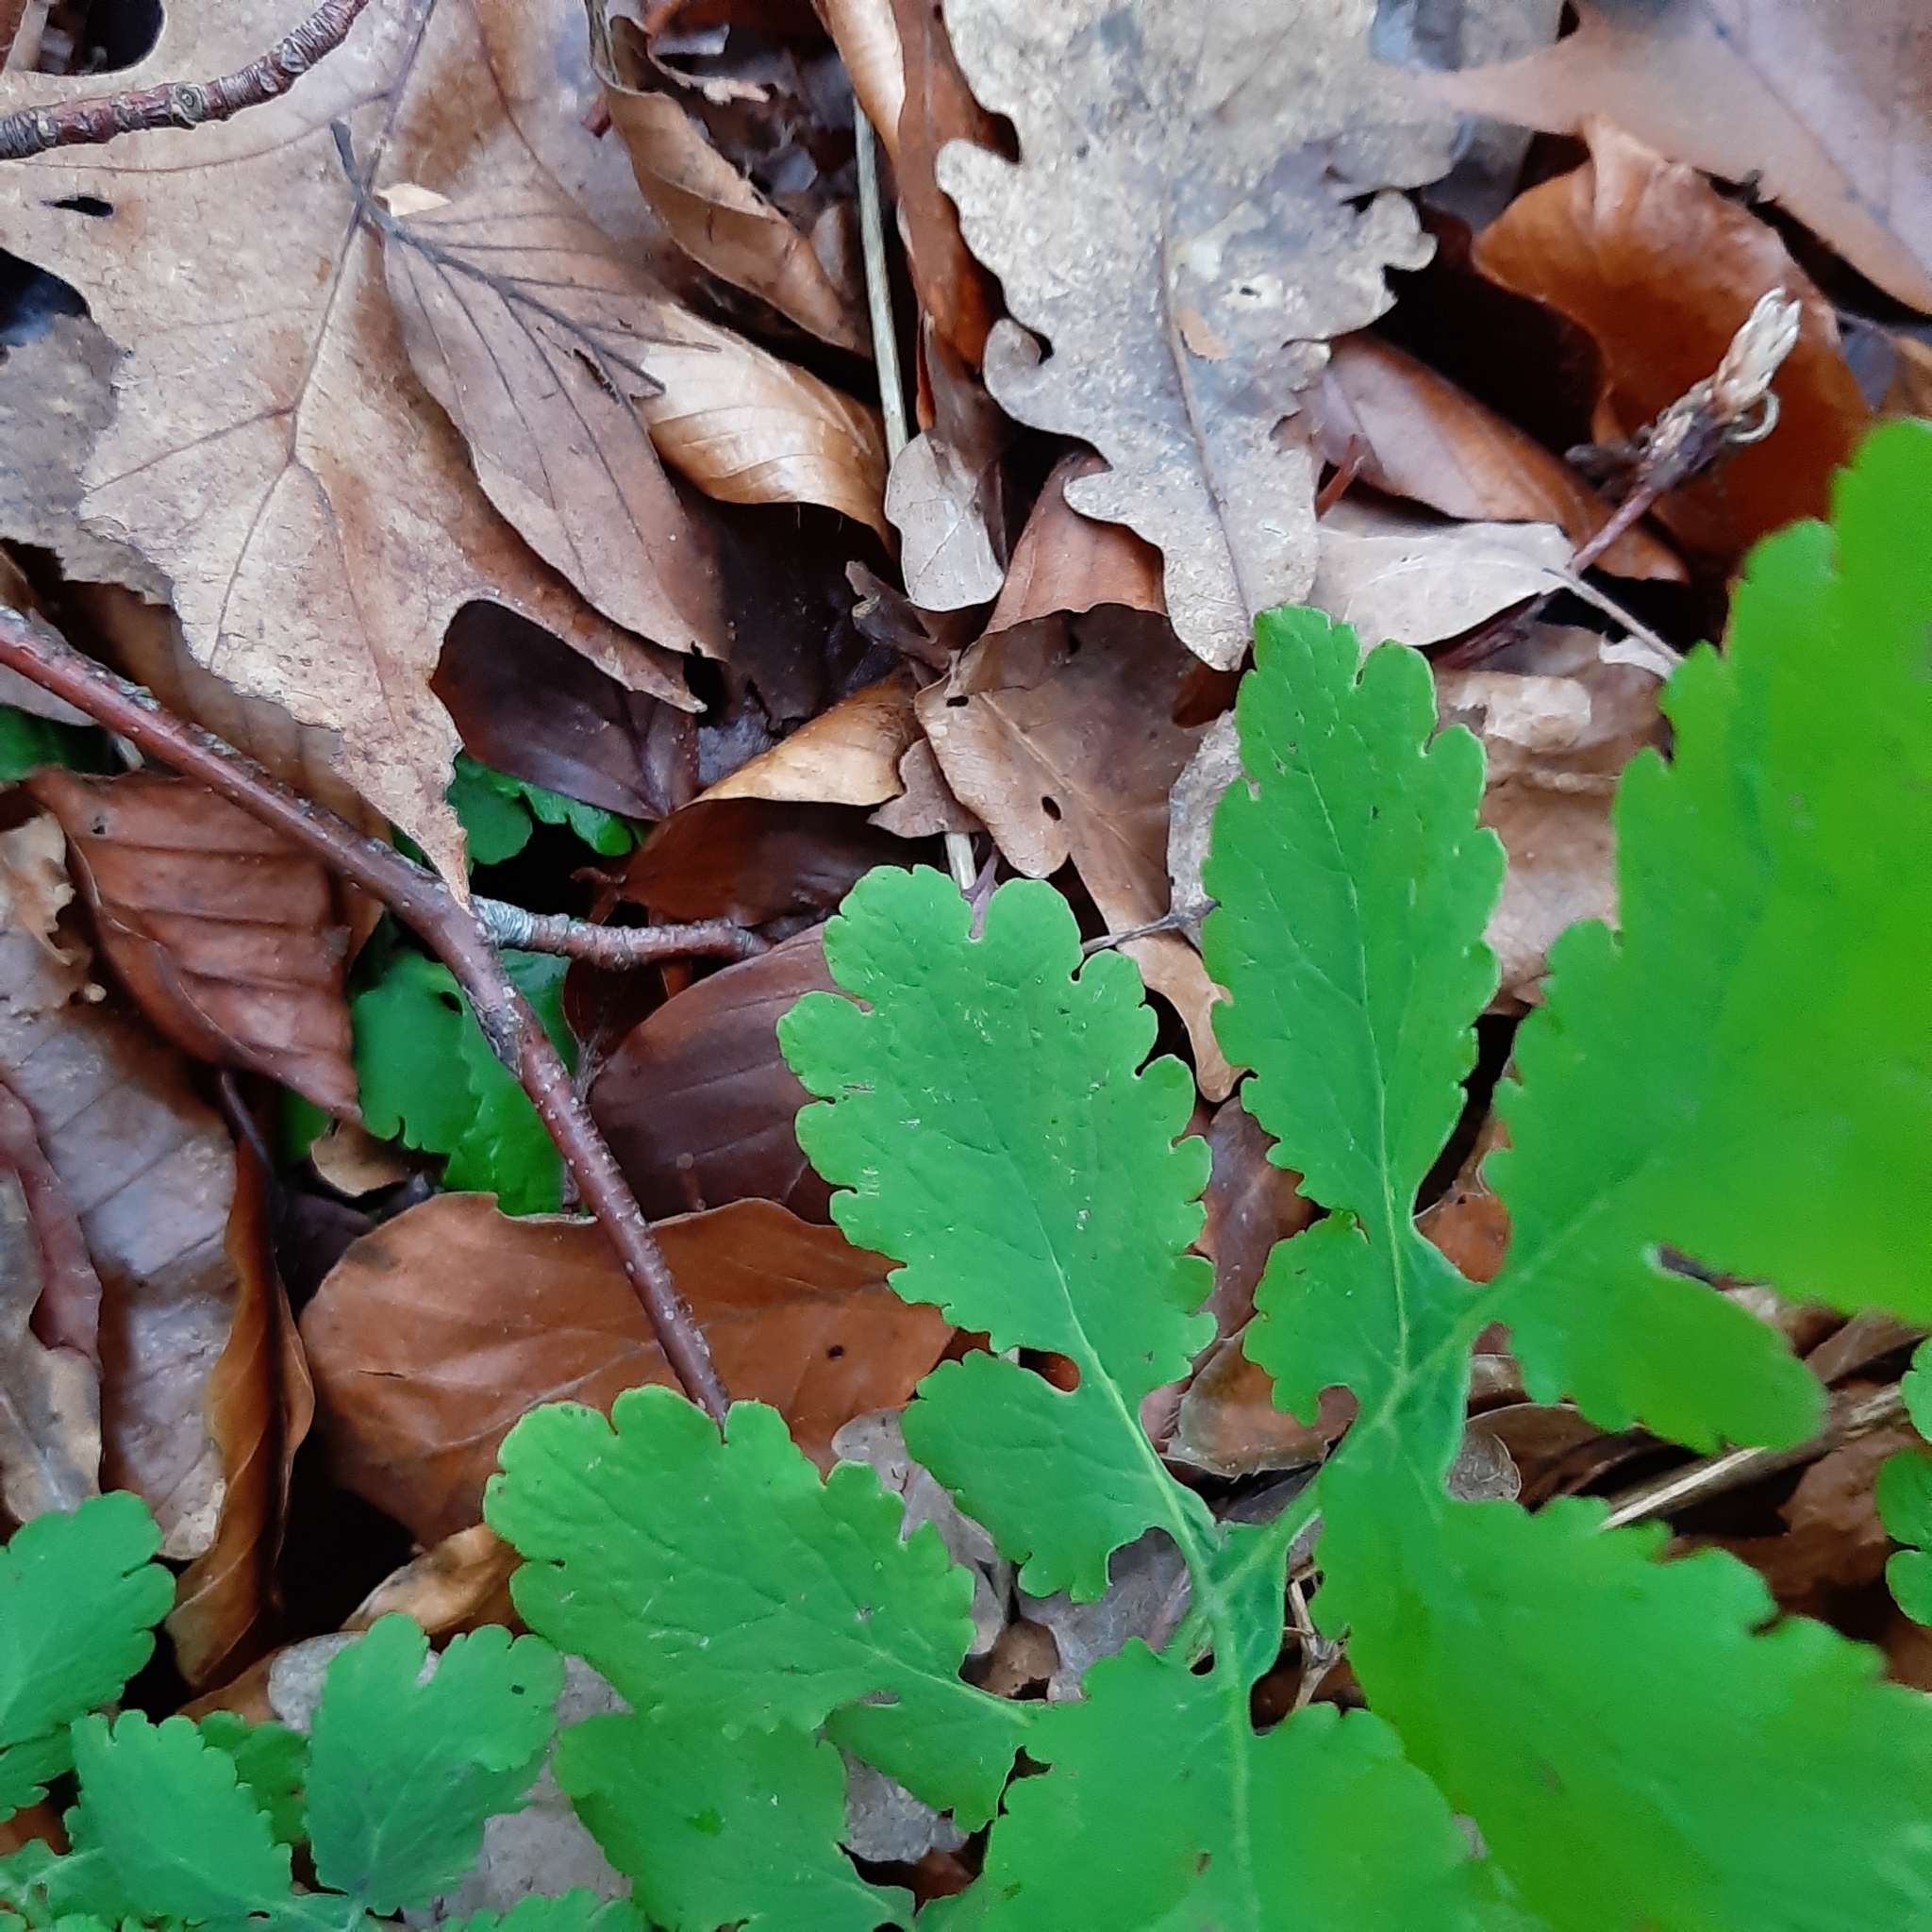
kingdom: Plantae
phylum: Tracheophyta
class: Magnoliopsida
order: Ranunculales
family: Papaveraceae
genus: Chelidonium
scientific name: Chelidonium majus
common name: Greater celandine
